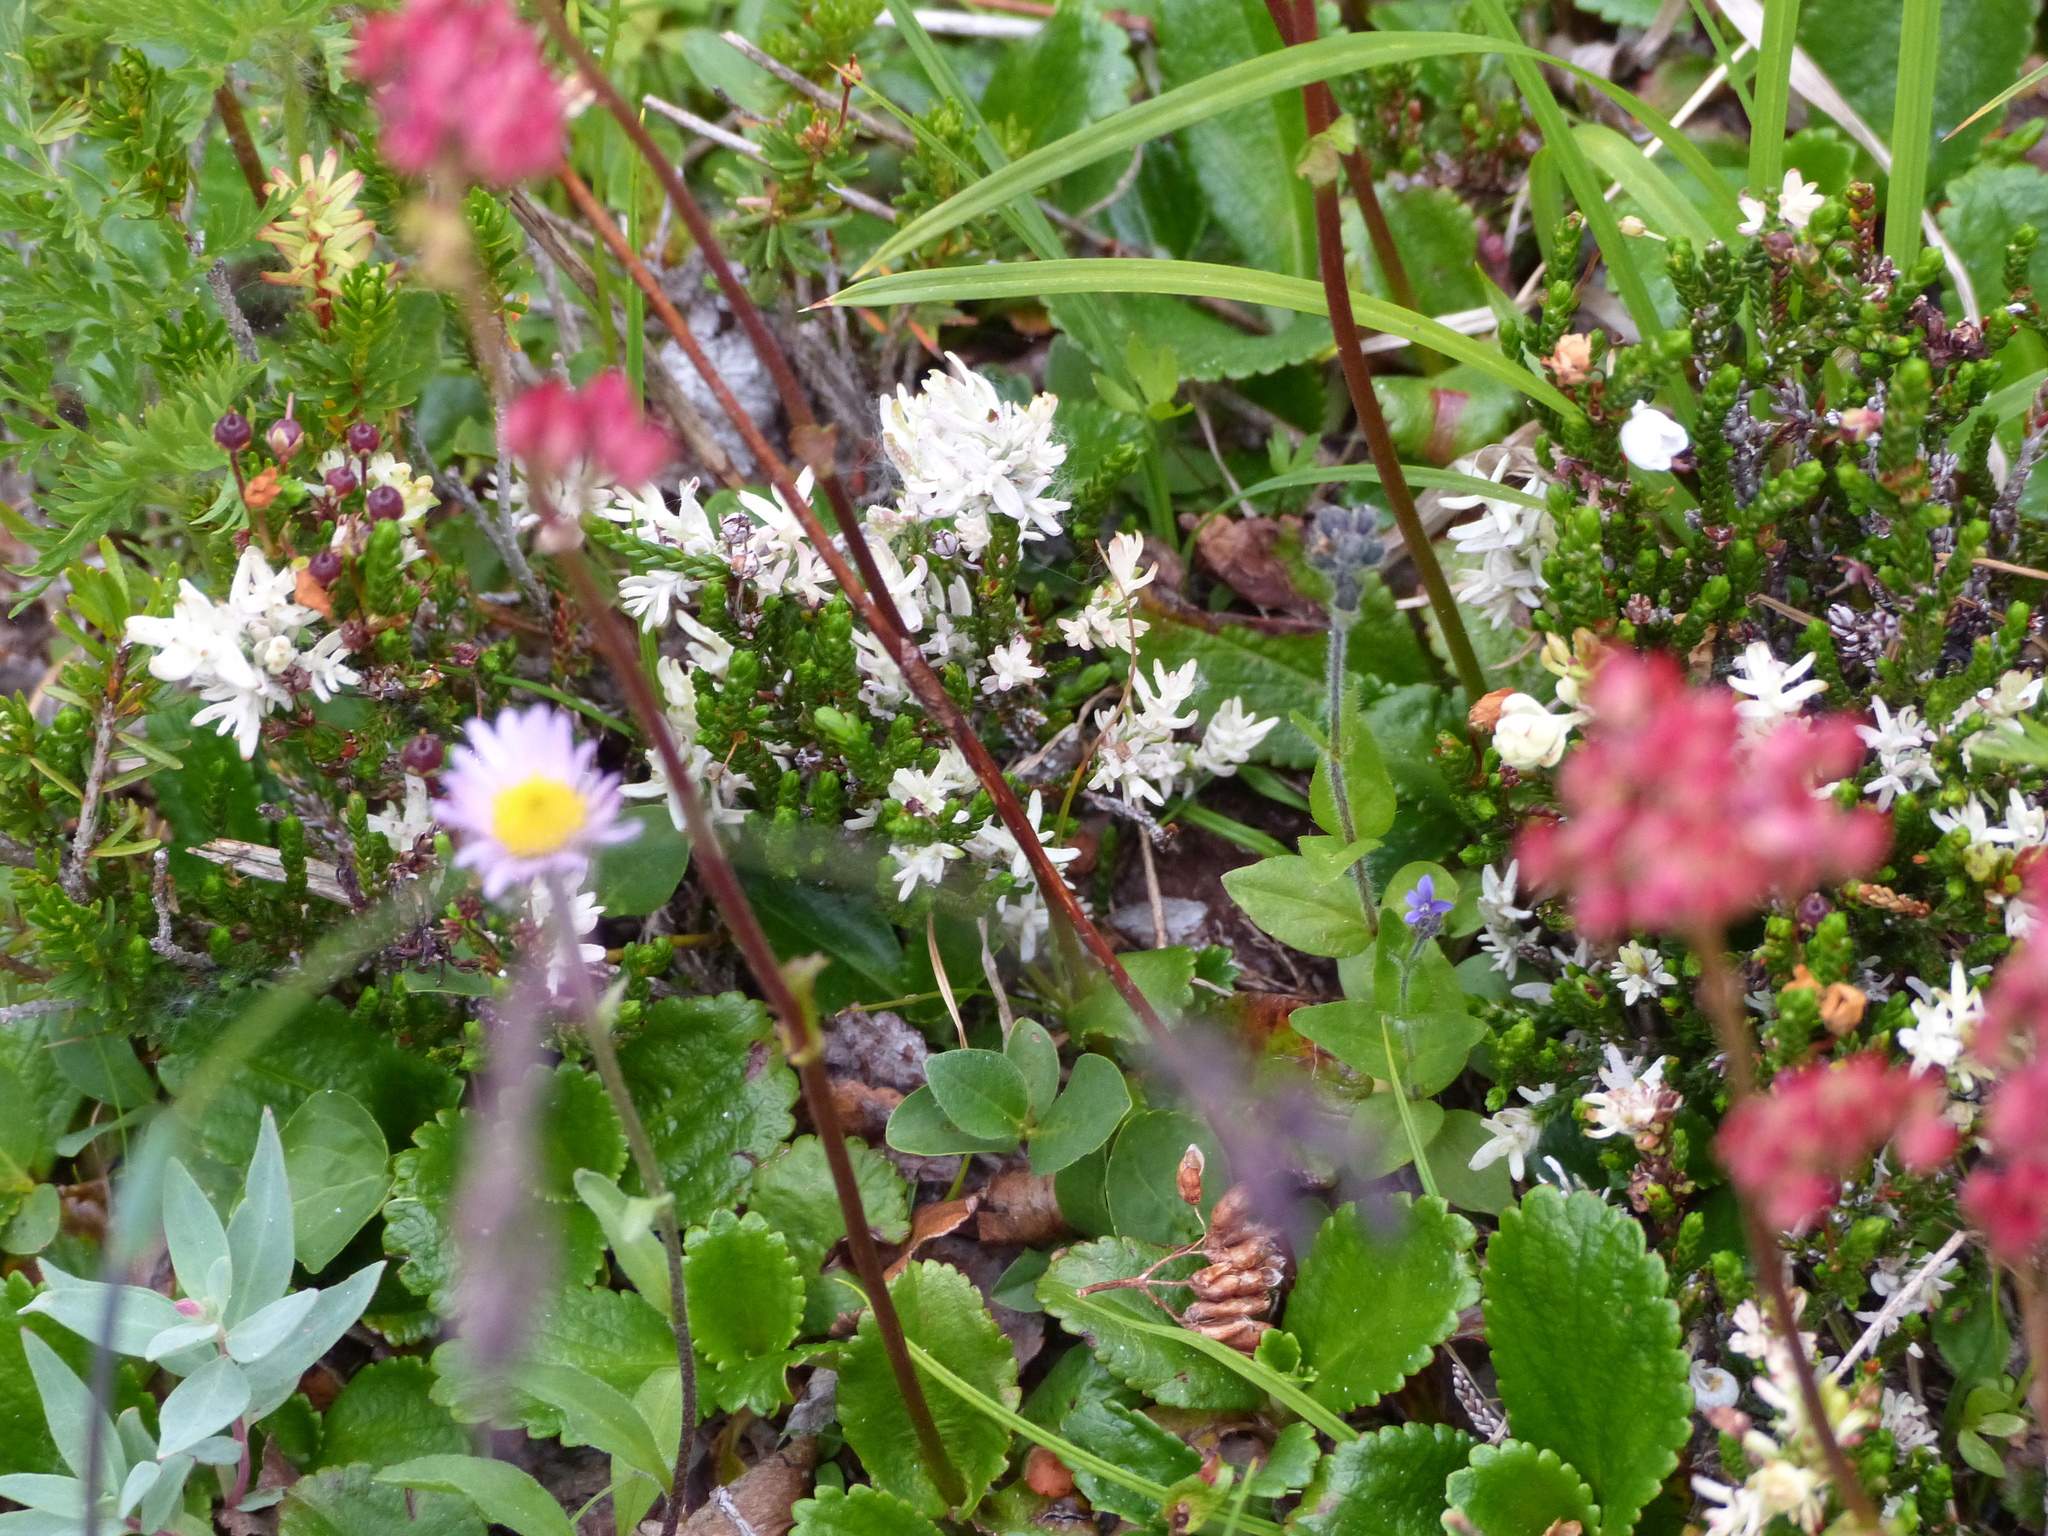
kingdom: Fungi
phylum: Basidiomycota
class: Exobasidiomycetes
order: Exobasidiales
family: Exobasidiaceae
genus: Exobasidium
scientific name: Exobasidium cassiopes
